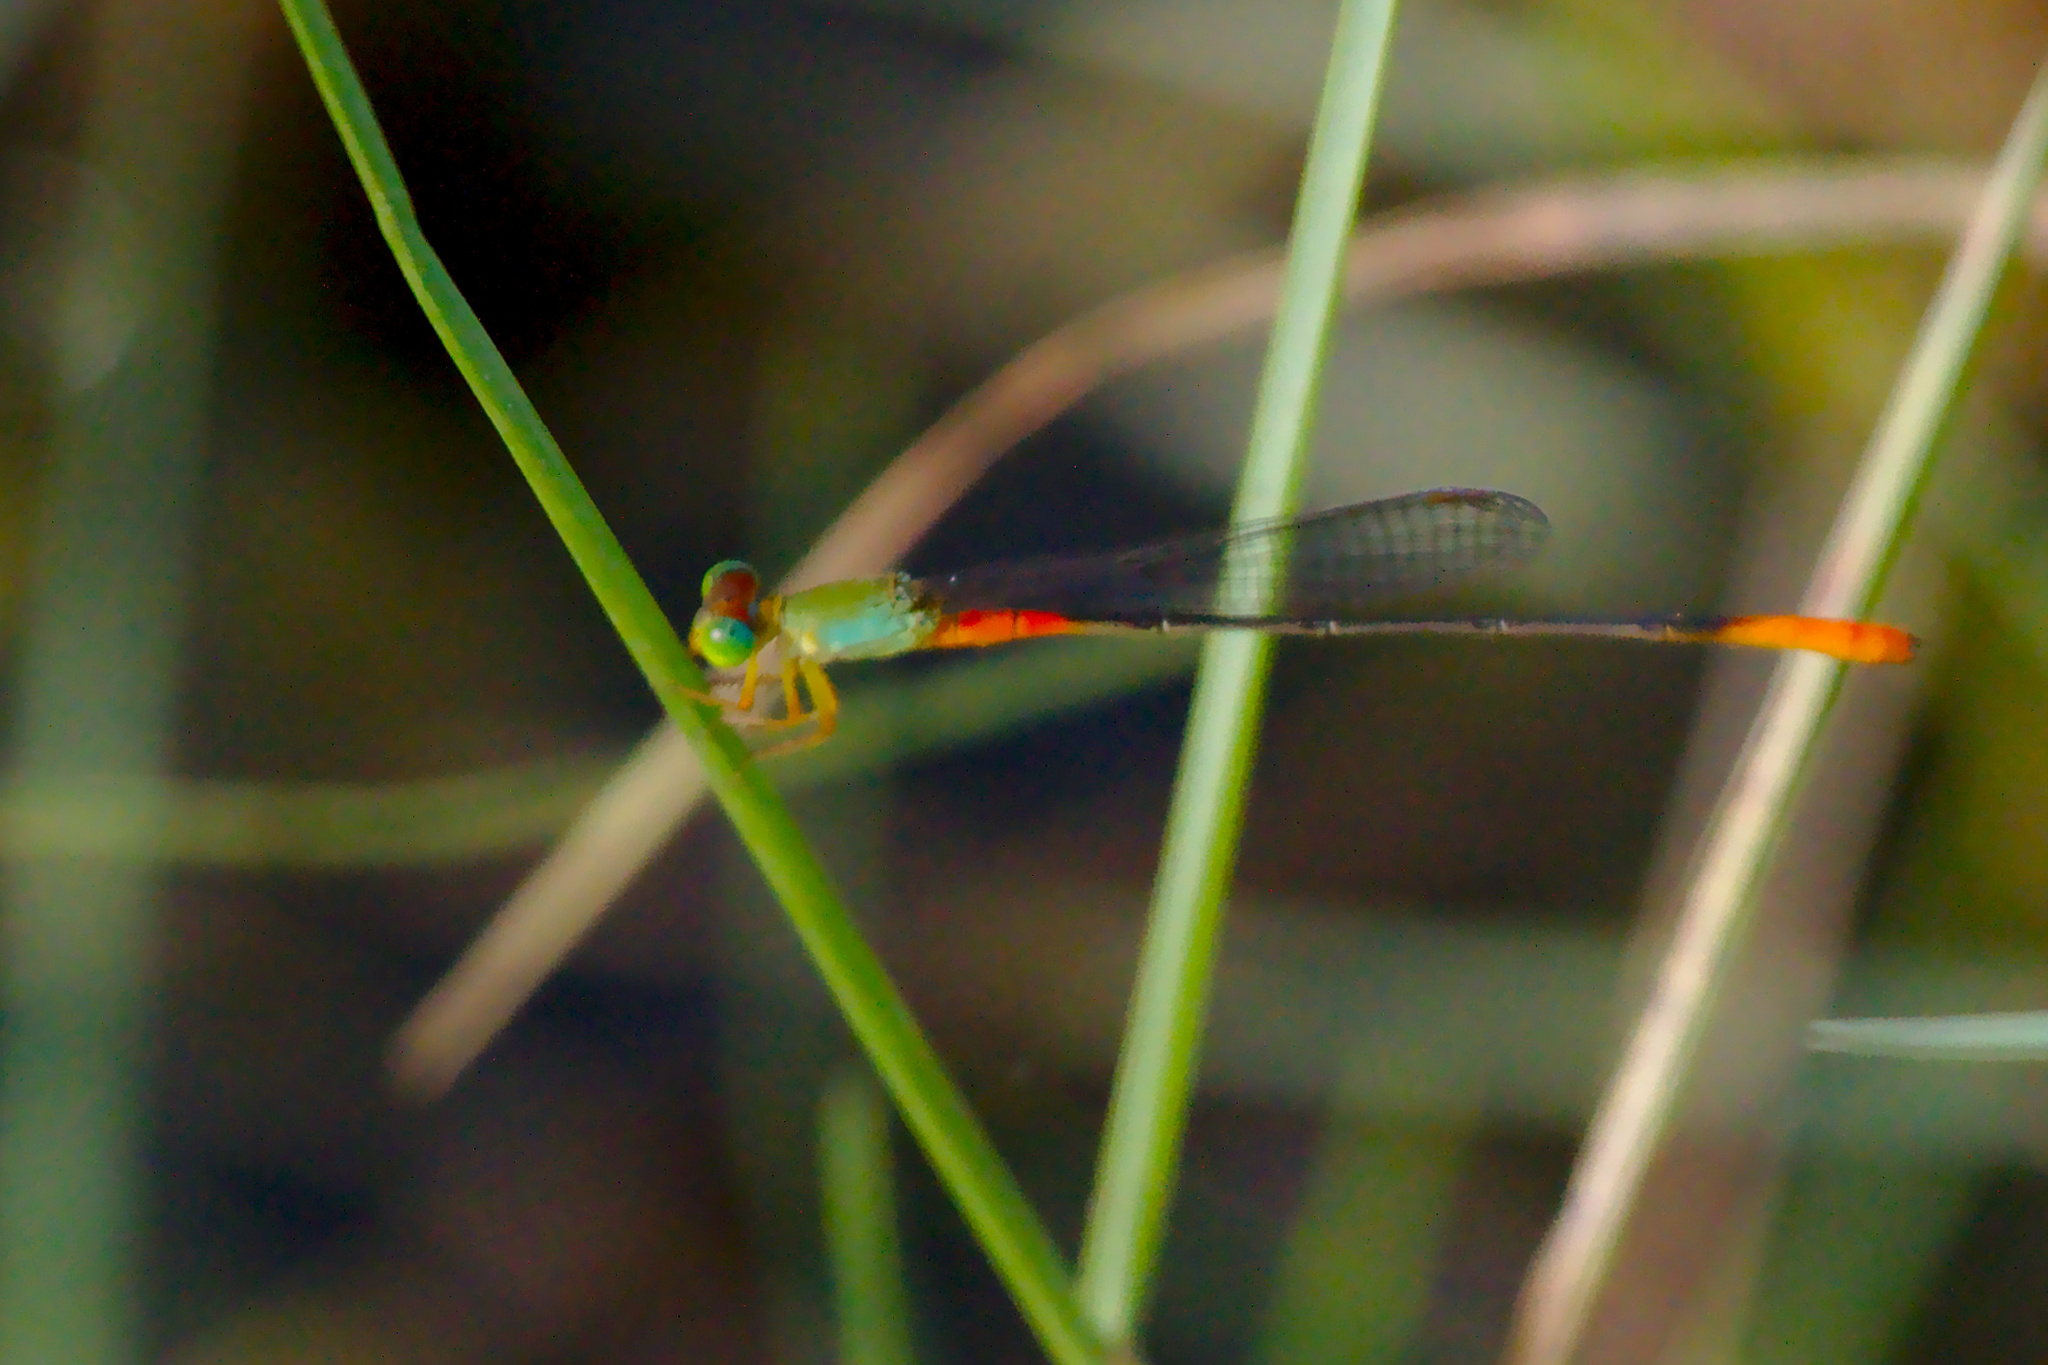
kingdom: Animalia
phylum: Arthropoda
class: Insecta
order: Odonata
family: Coenagrionidae
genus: Ceriagrion
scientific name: Ceriagrion cerinorubellum
